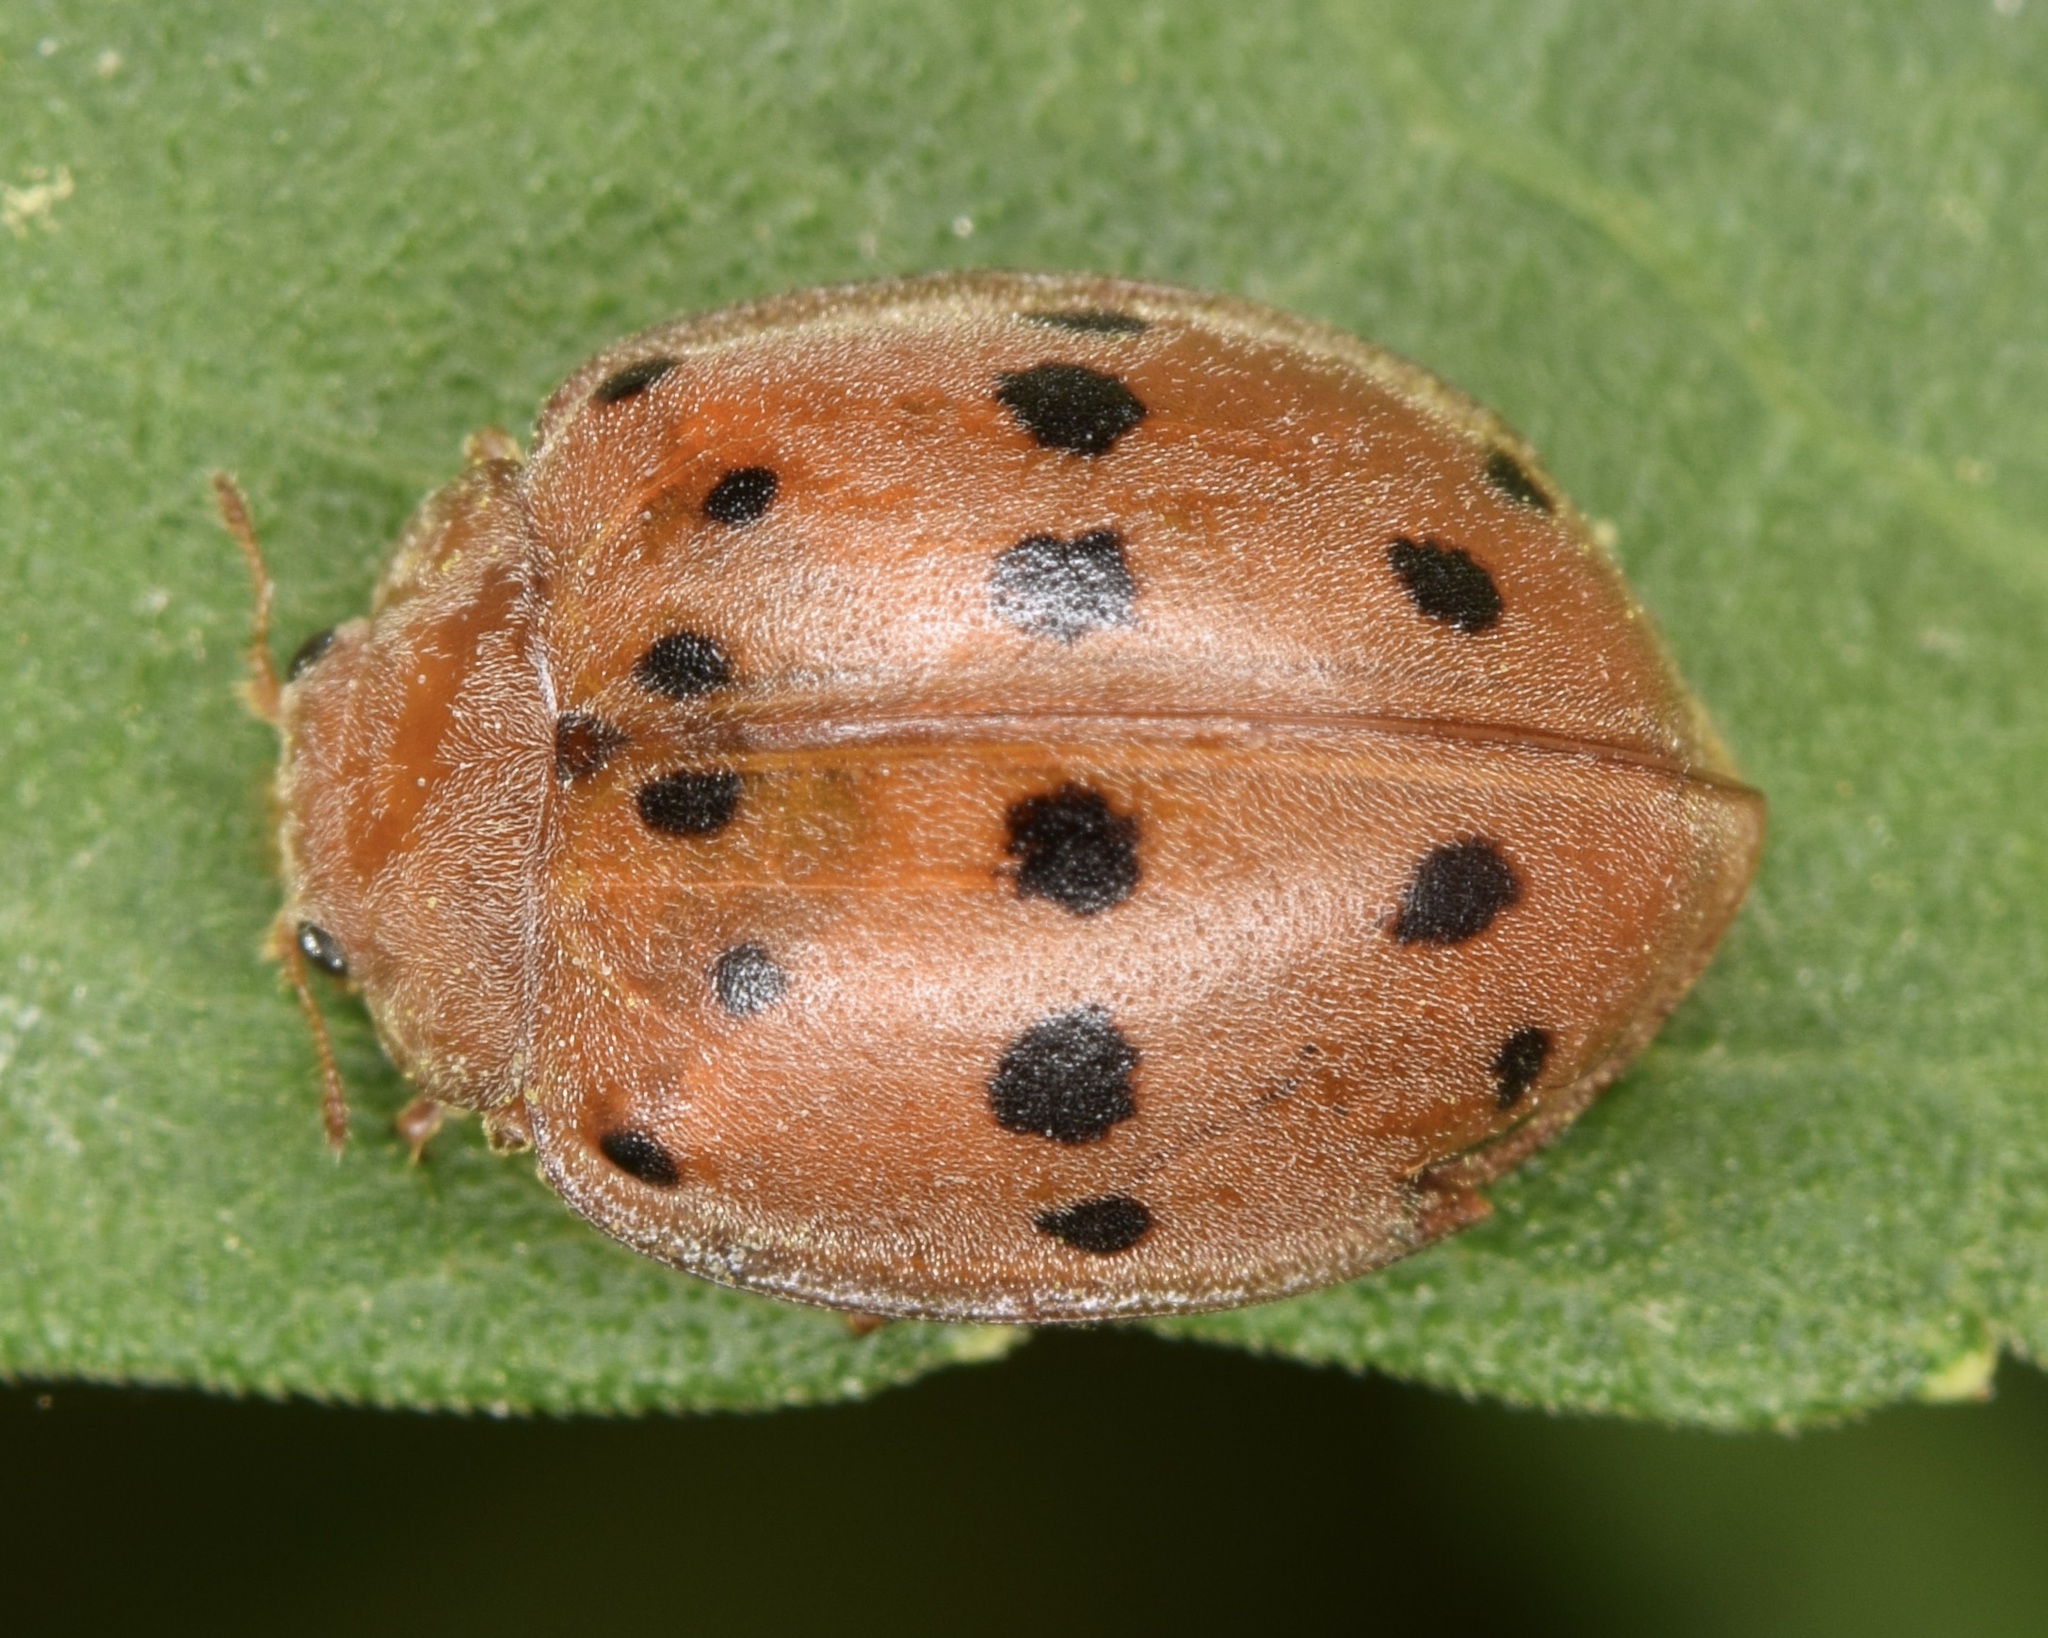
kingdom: Animalia
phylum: Arthropoda
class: Insecta
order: Coleoptera
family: Coccinellidae
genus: Epilachna
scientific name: Epilachna varivestis
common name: Ladybird beetle
